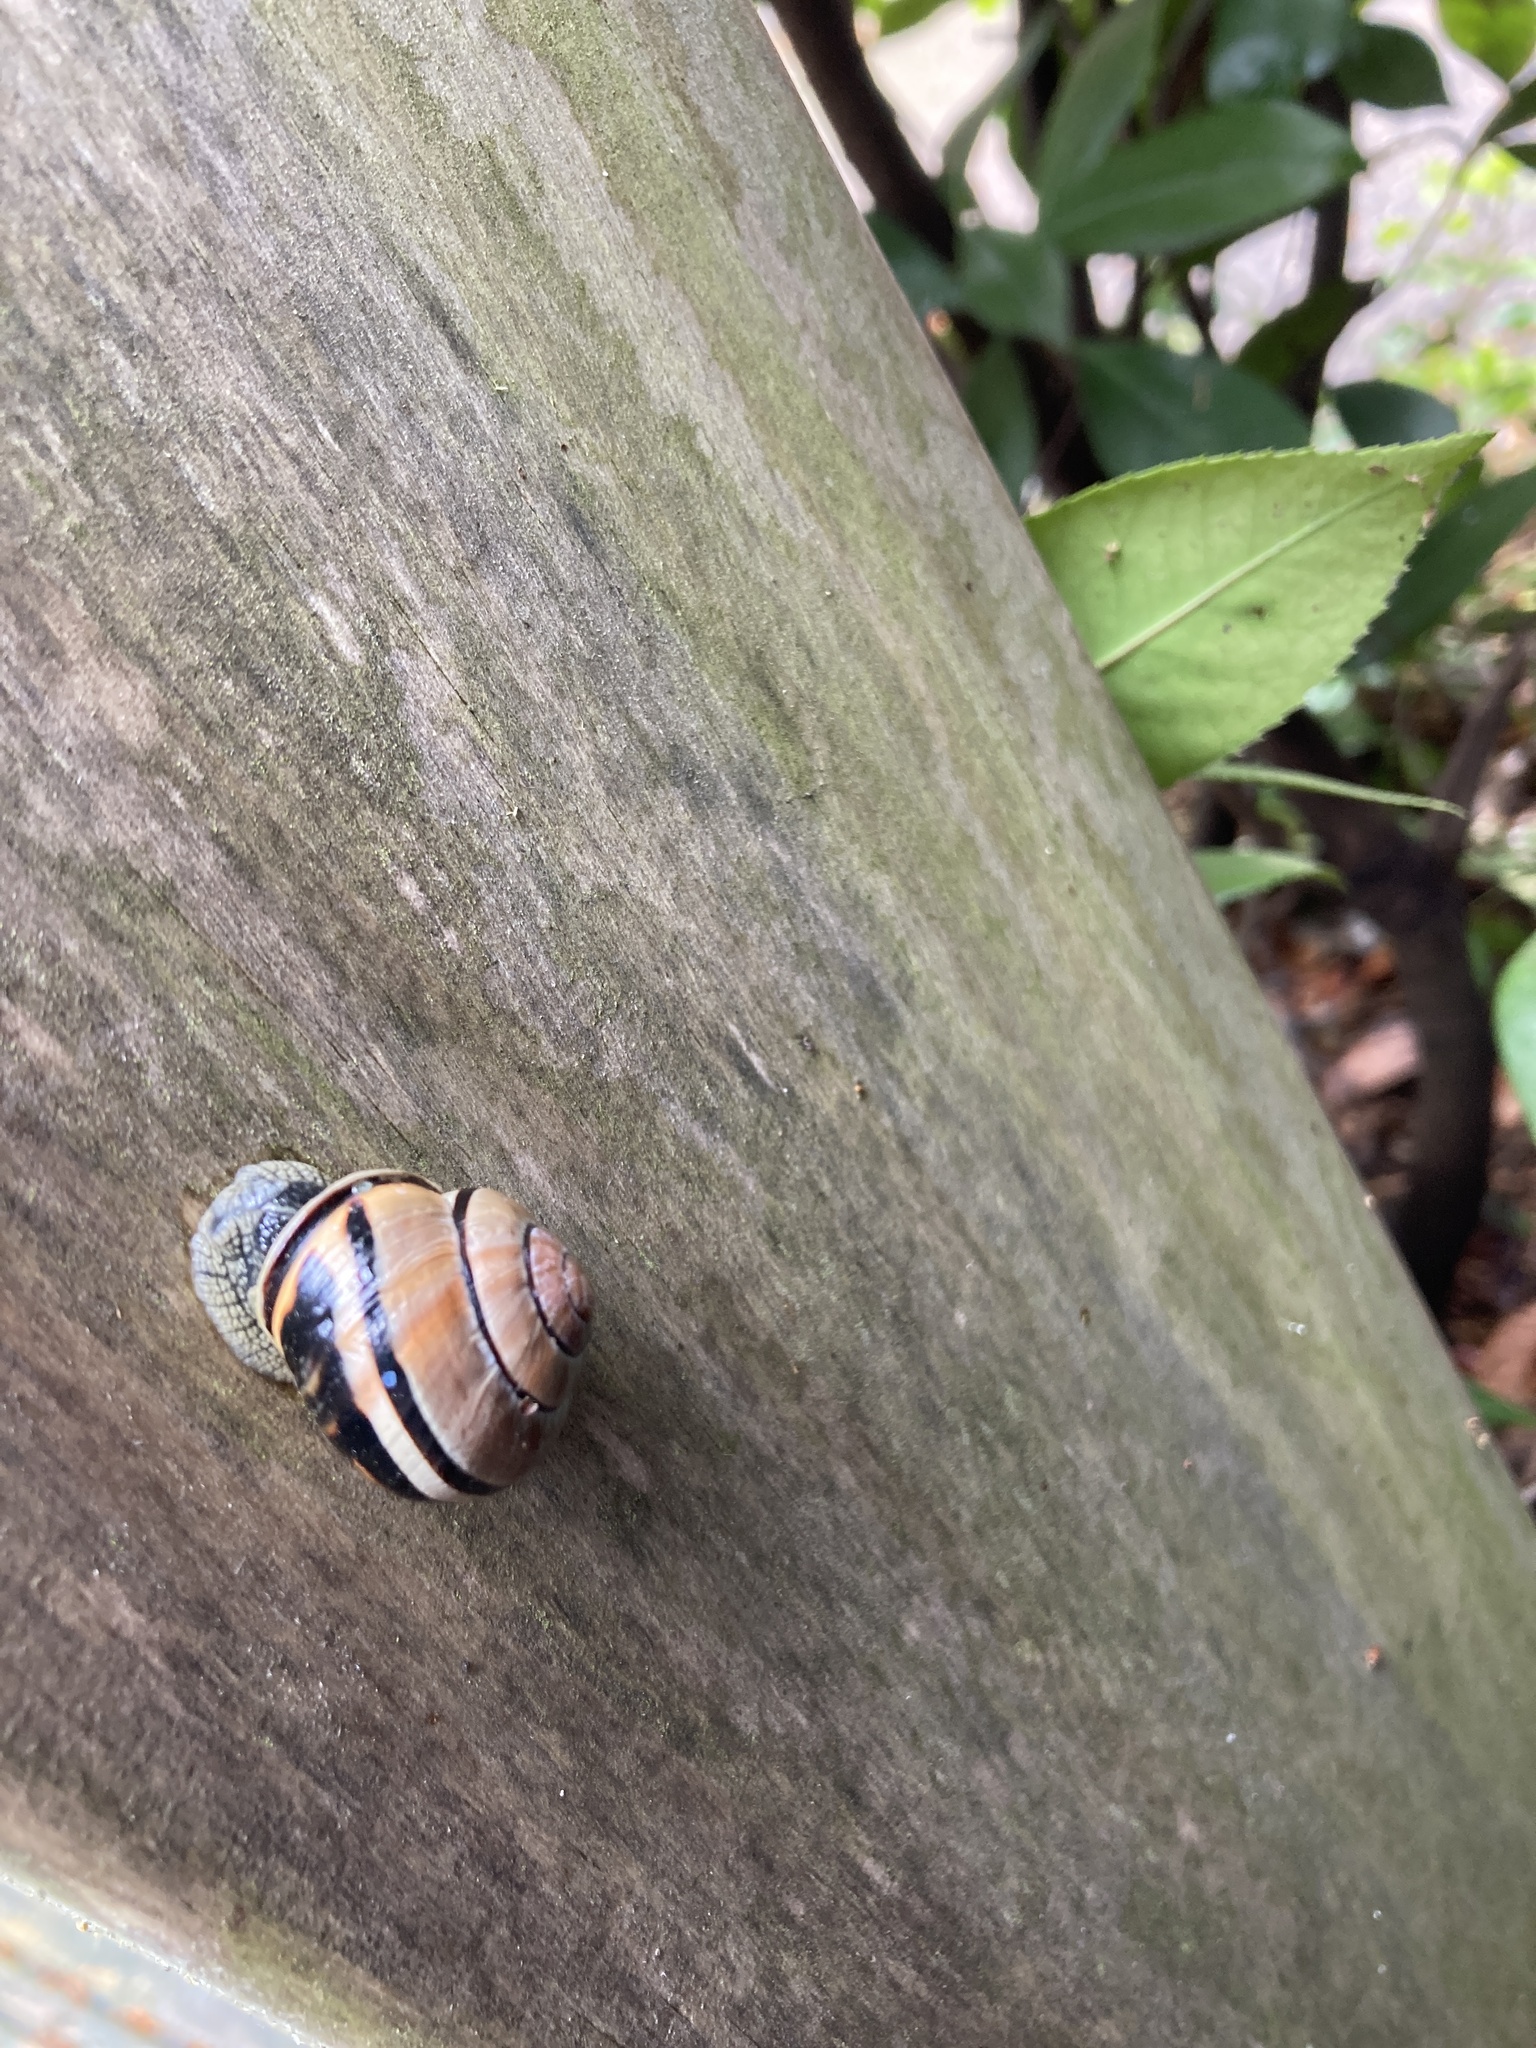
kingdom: Animalia
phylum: Mollusca
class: Gastropoda
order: Stylommatophora
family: Helicidae
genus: Cepaea
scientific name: Cepaea nemoralis
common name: Grovesnail
